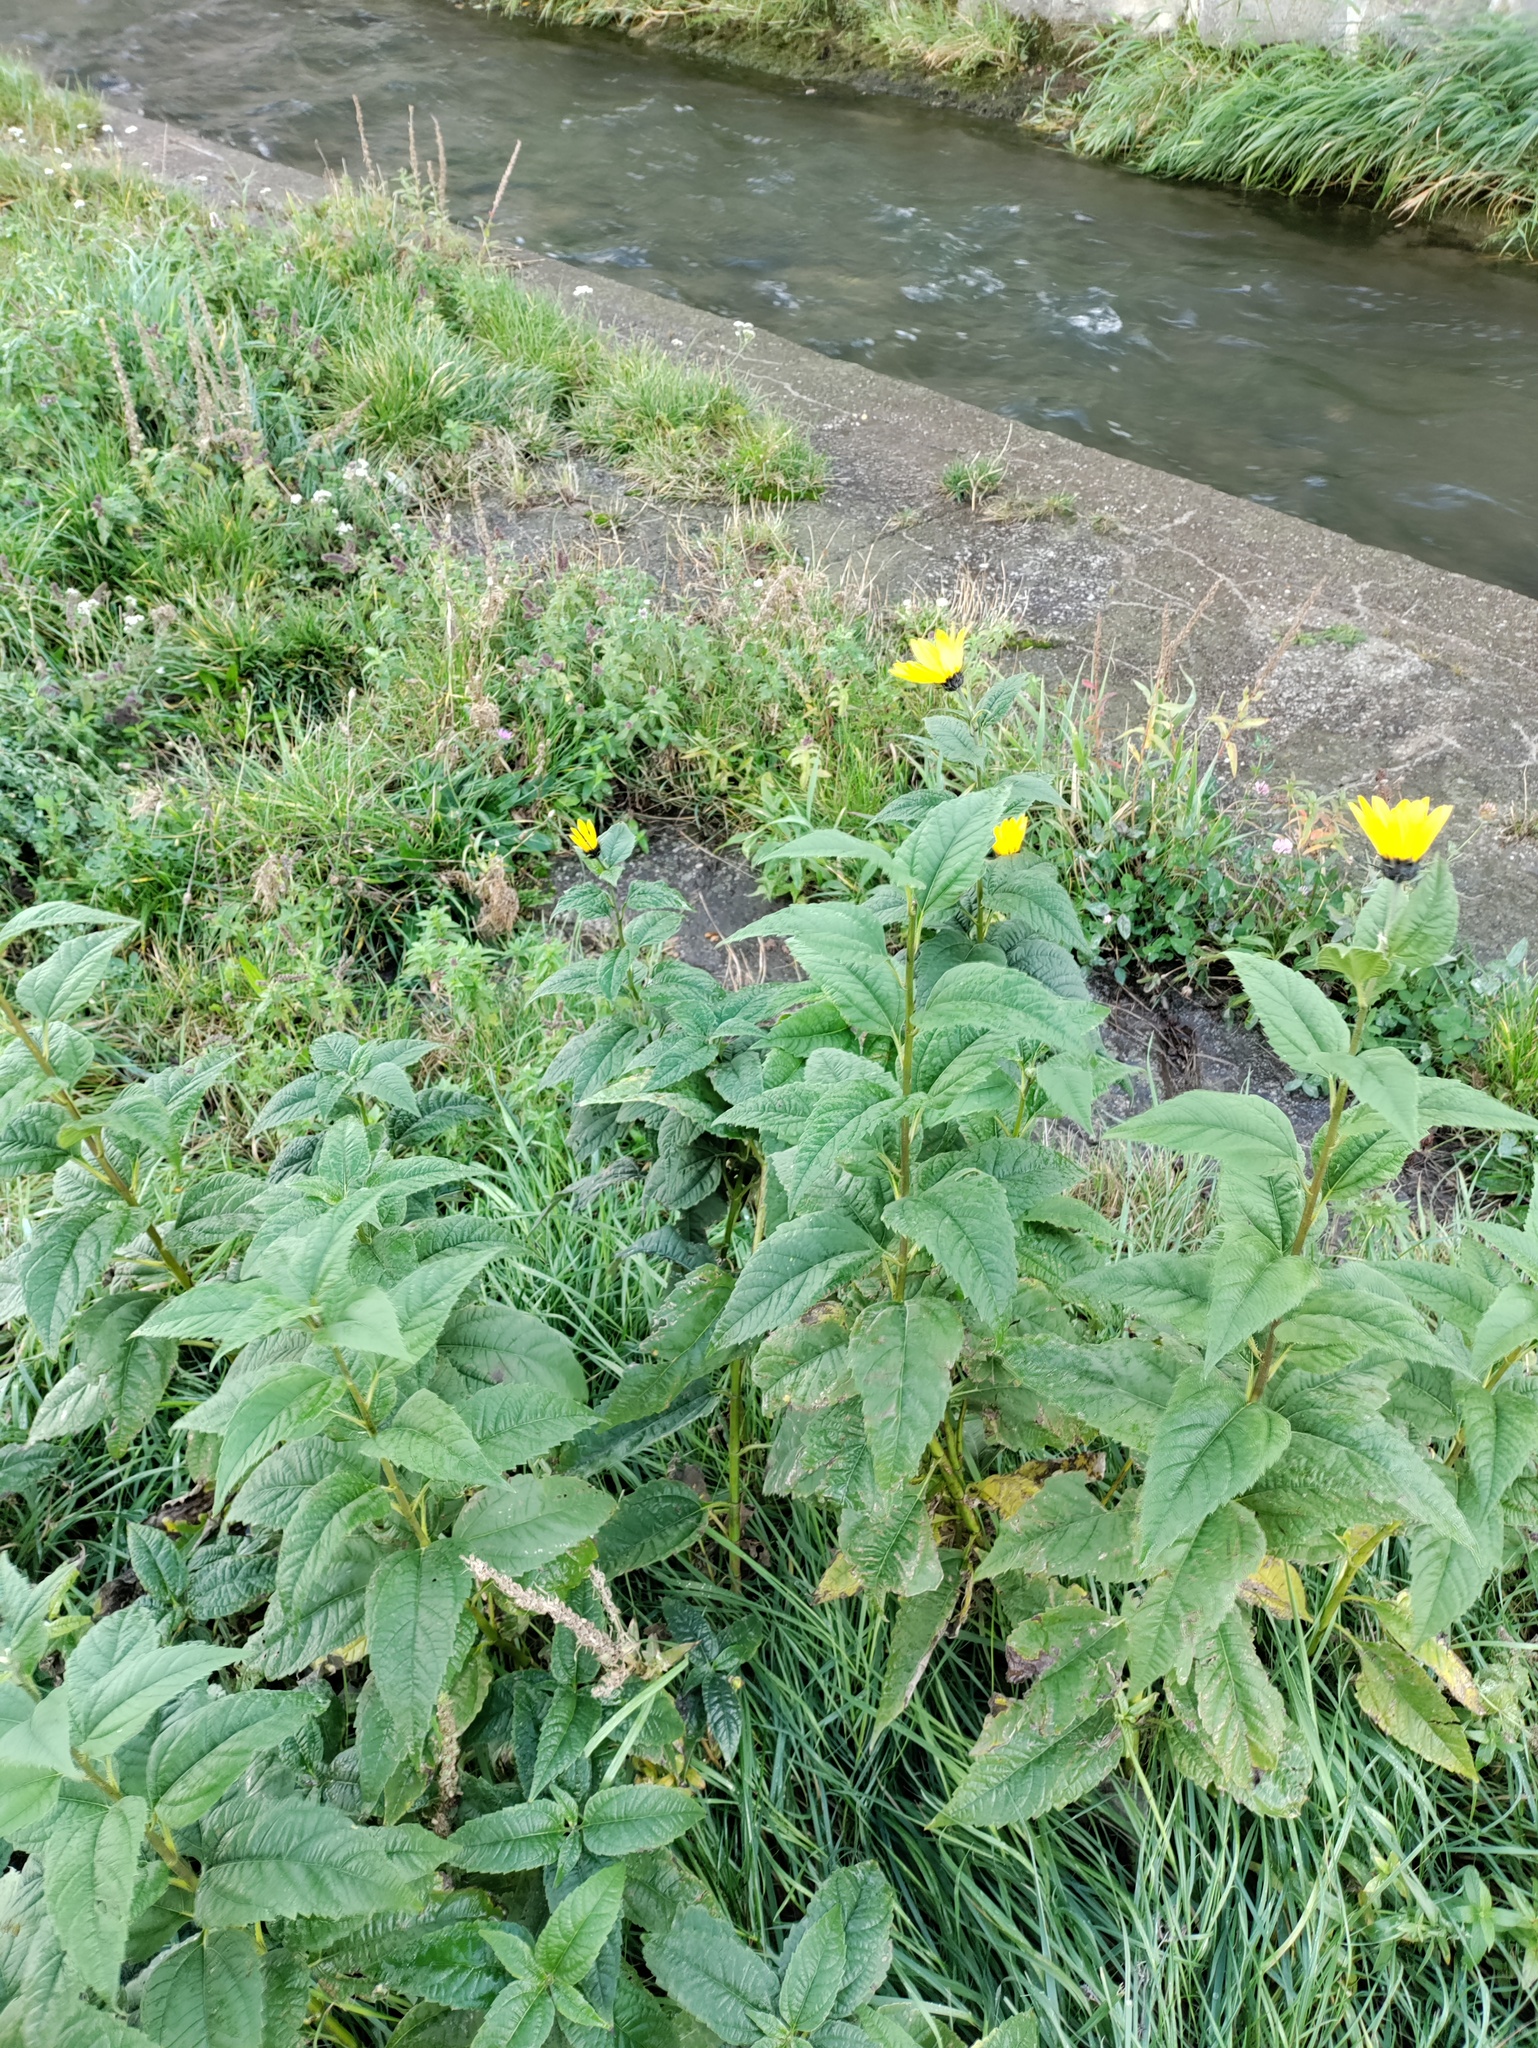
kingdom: Plantae
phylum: Tracheophyta
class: Magnoliopsida
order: Asterales
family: Asteraceae
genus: Helianthus
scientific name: Helianthus tuberosus
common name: Jerusalem artichoke
